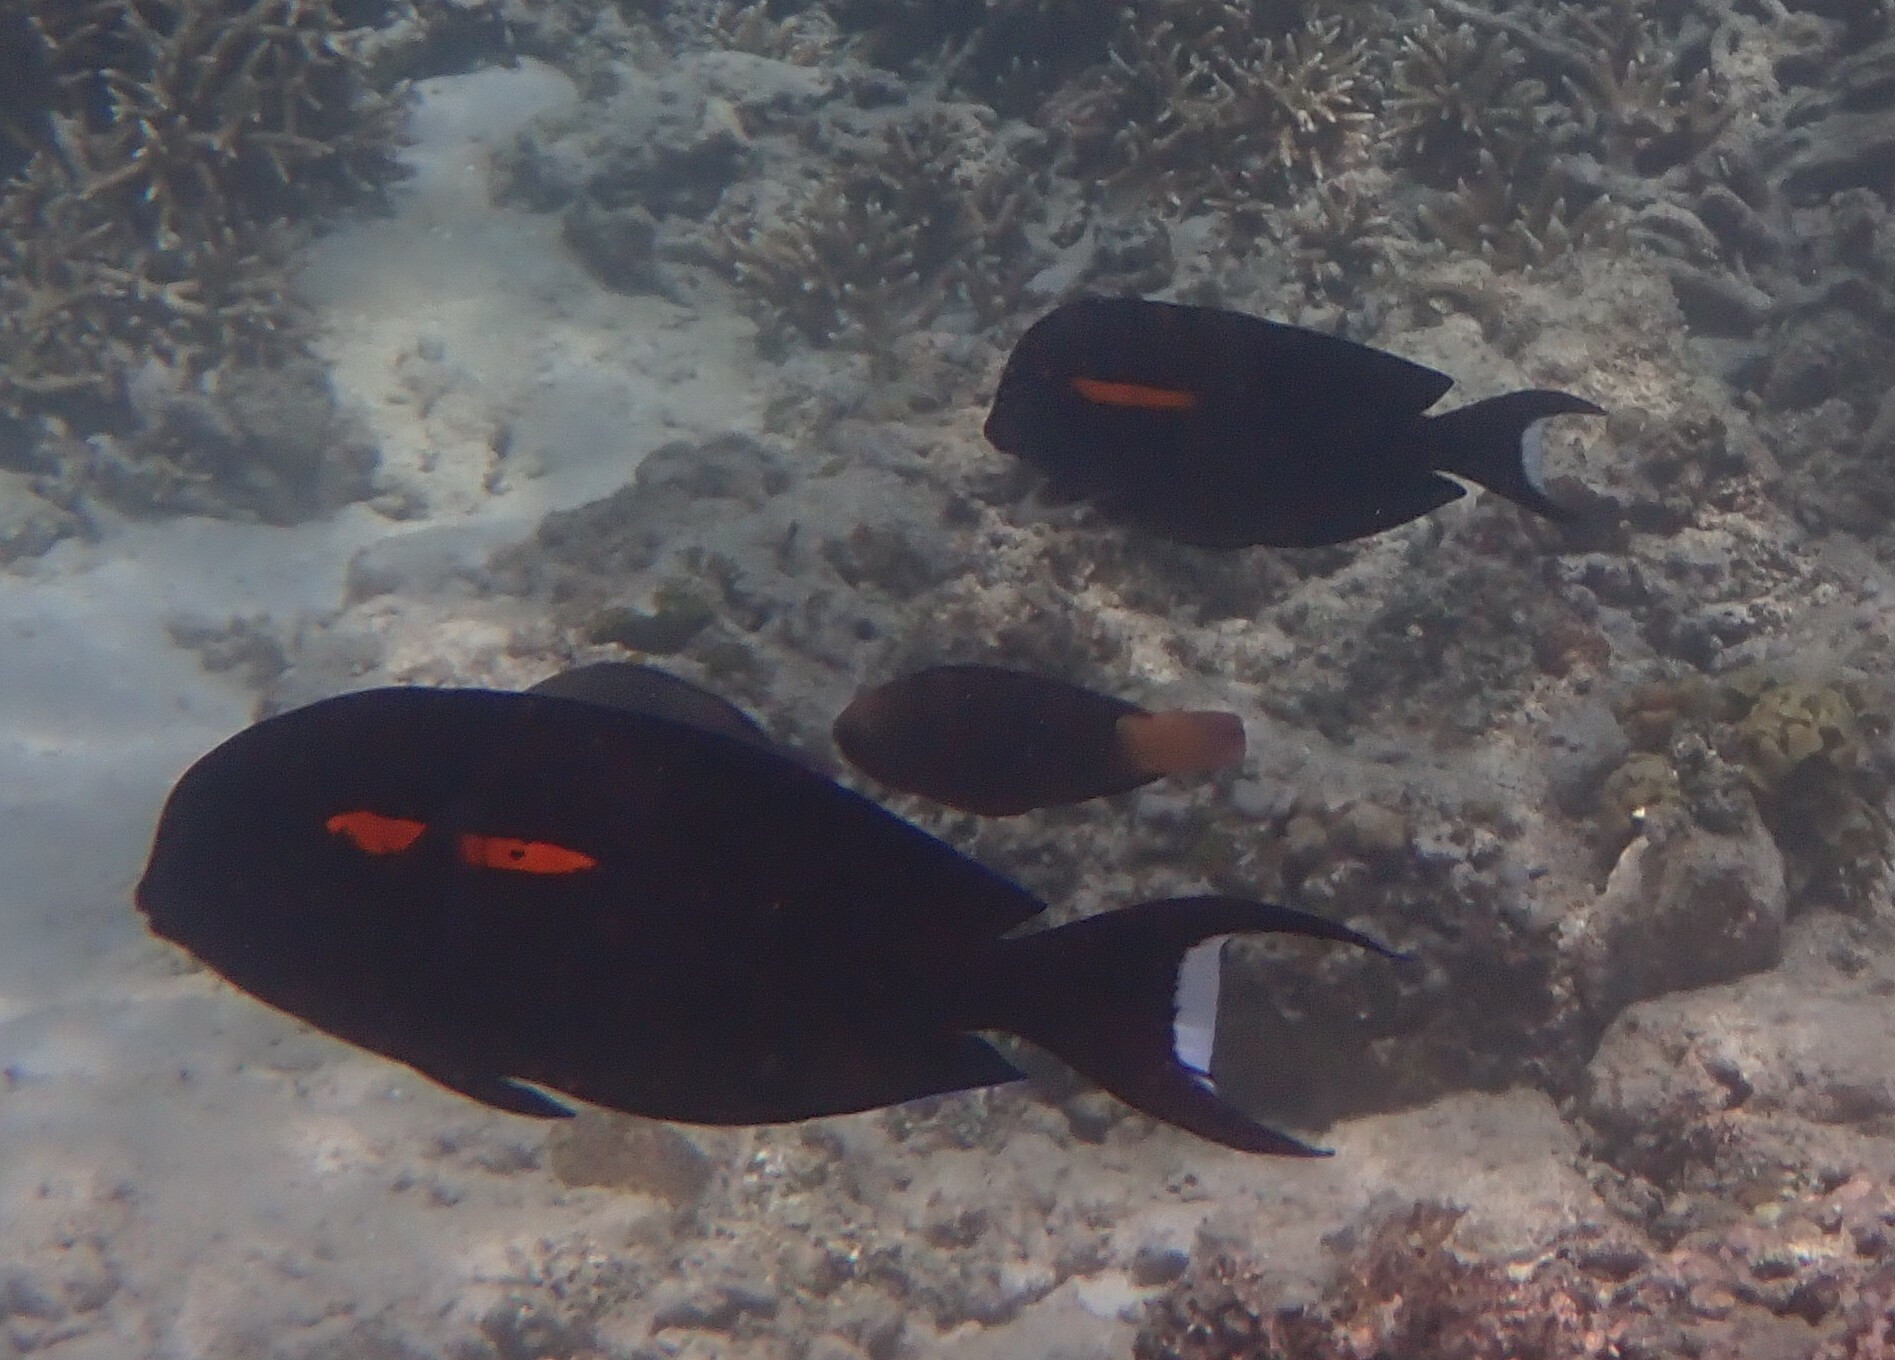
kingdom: Animalia
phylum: Chordata
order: Perciformes
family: Acanthuridae
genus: Acanthurus
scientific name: Acanthurus olivaceus
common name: Gendarme fish
